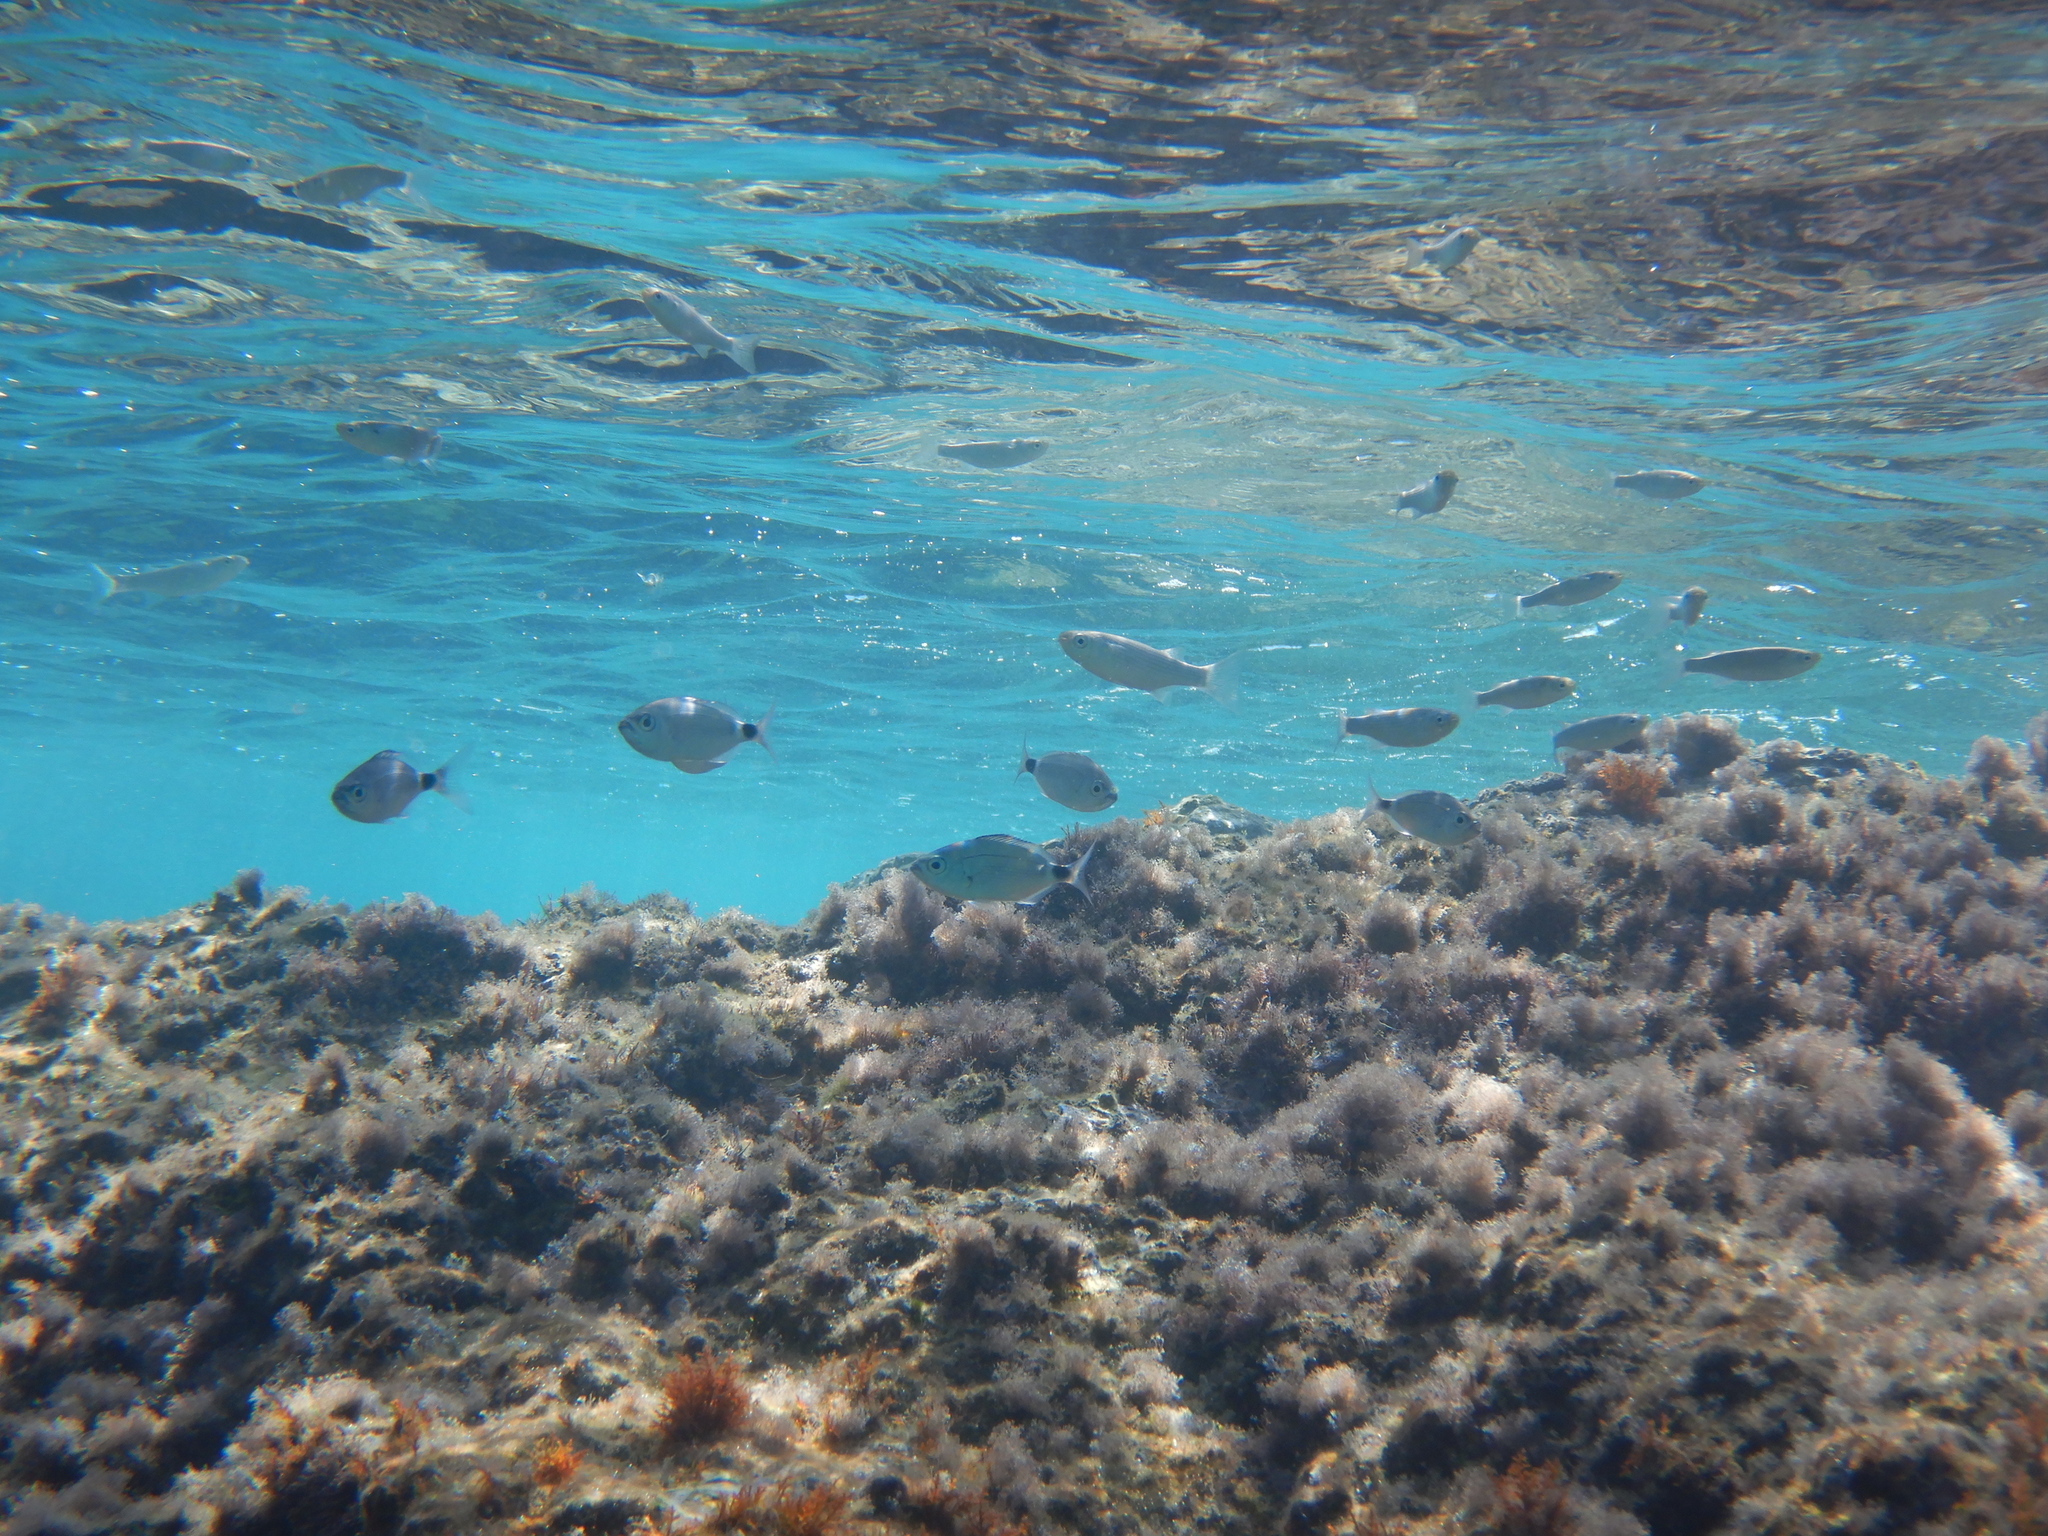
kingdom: Animalia
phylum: Chordata
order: Perciformes
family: Sparidae
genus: Oblada
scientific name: Oblada melanura
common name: Saddled seabream
